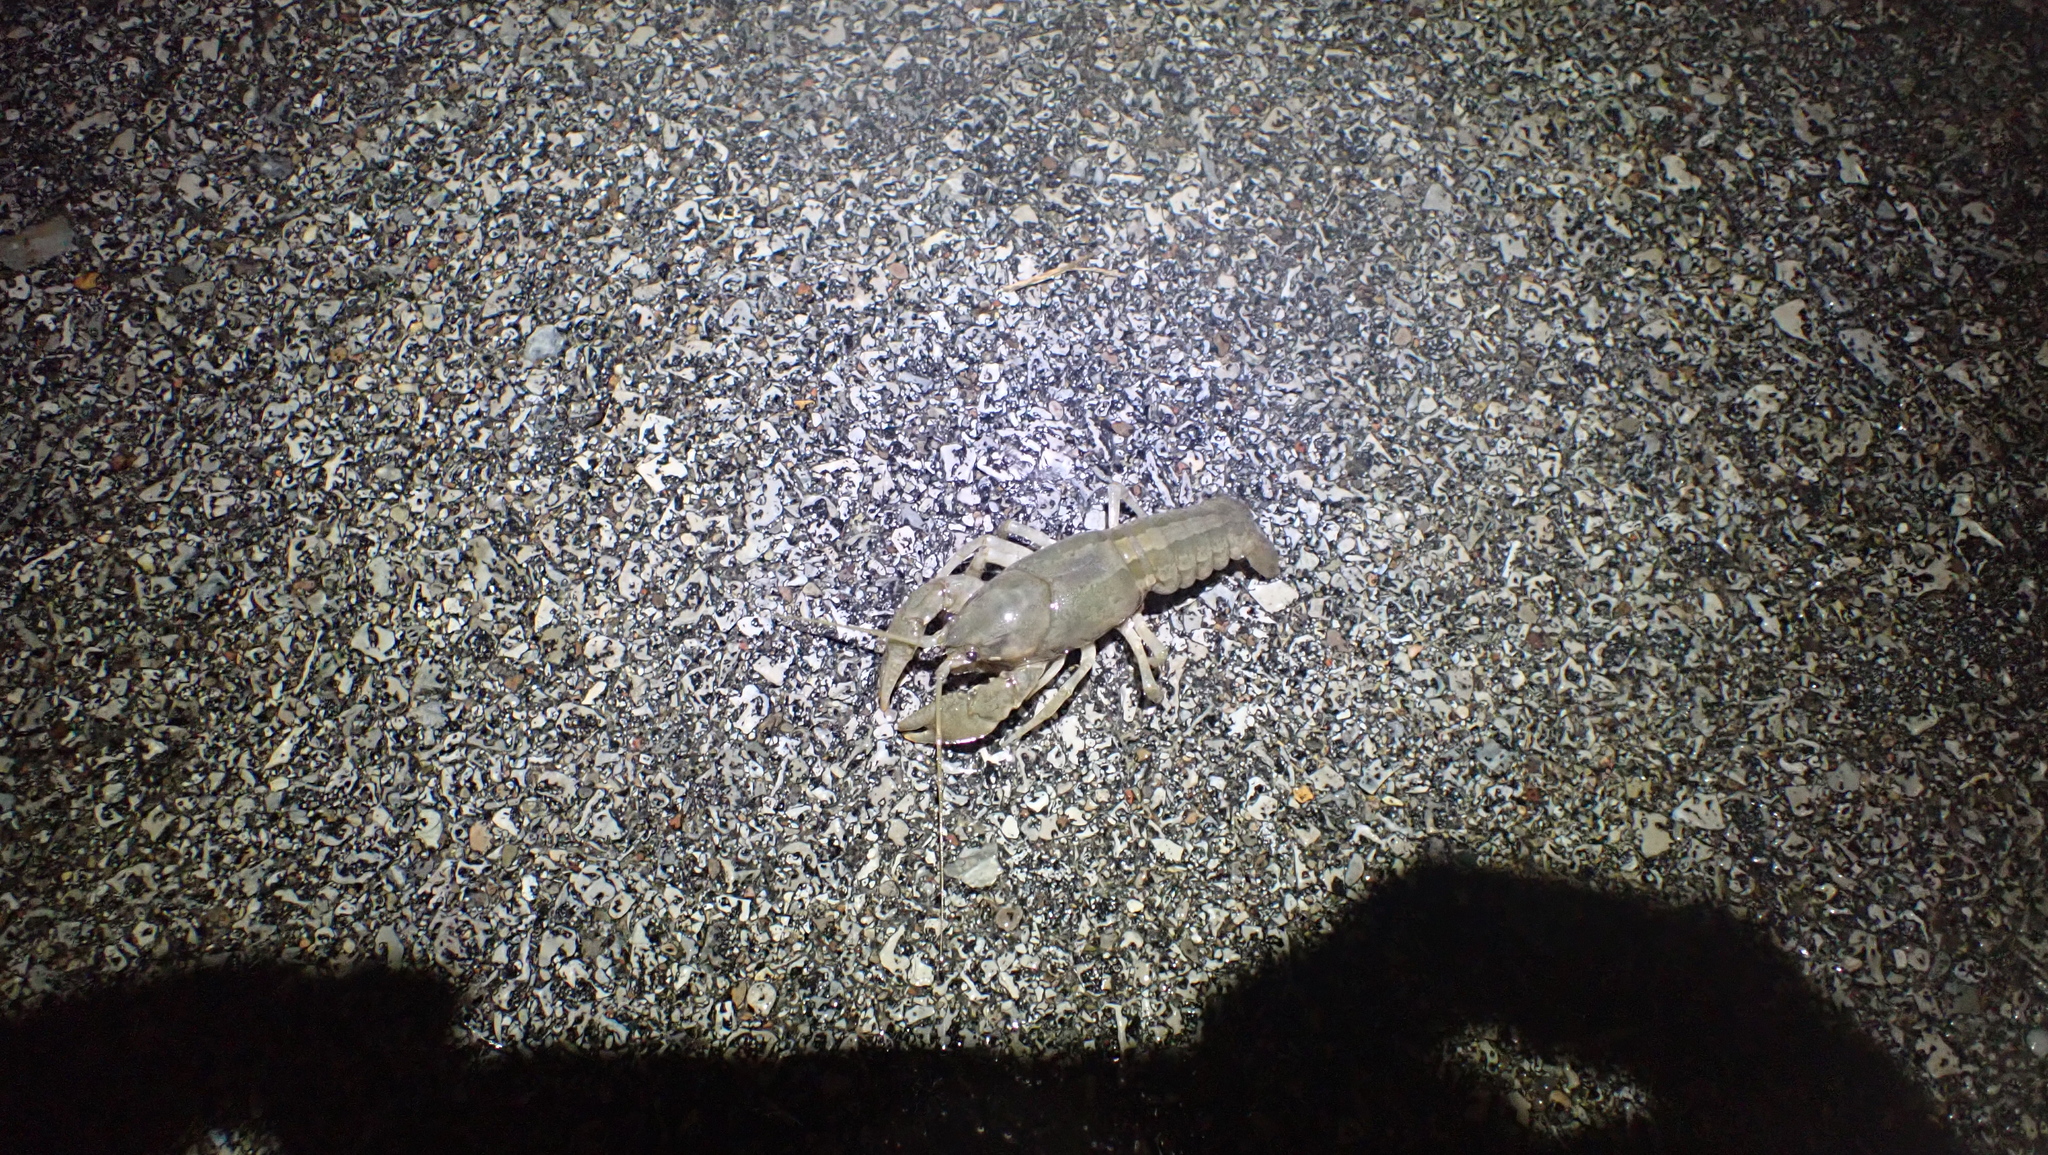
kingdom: Animalia
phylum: Arthropoda
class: Malacostraca
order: Decapoda
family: Cambaridae
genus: Cambarus
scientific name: Cambarus striatus
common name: Ambiguous crayfish
